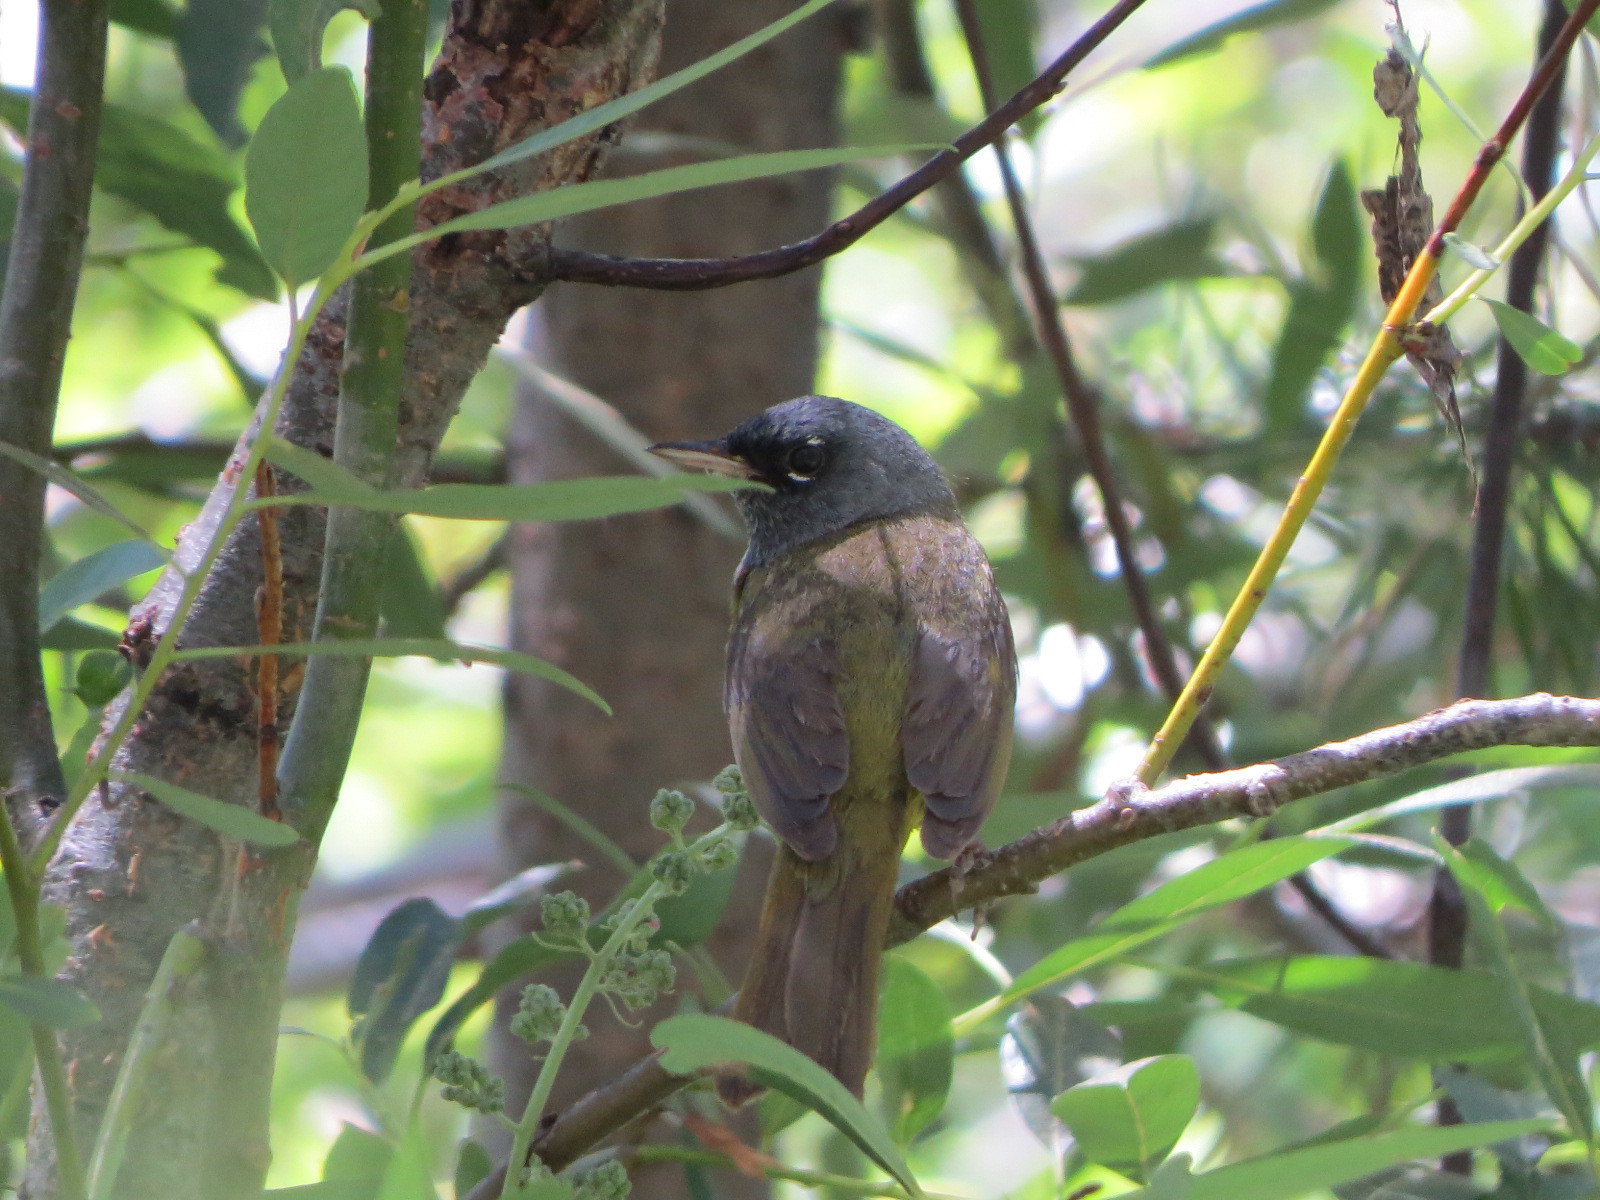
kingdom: Animalia
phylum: Chordata
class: Aves
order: Passeriformes
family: Parulidae
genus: Geothlypis
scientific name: Geothlypis tolmiei
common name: Macgillivray's warbler
